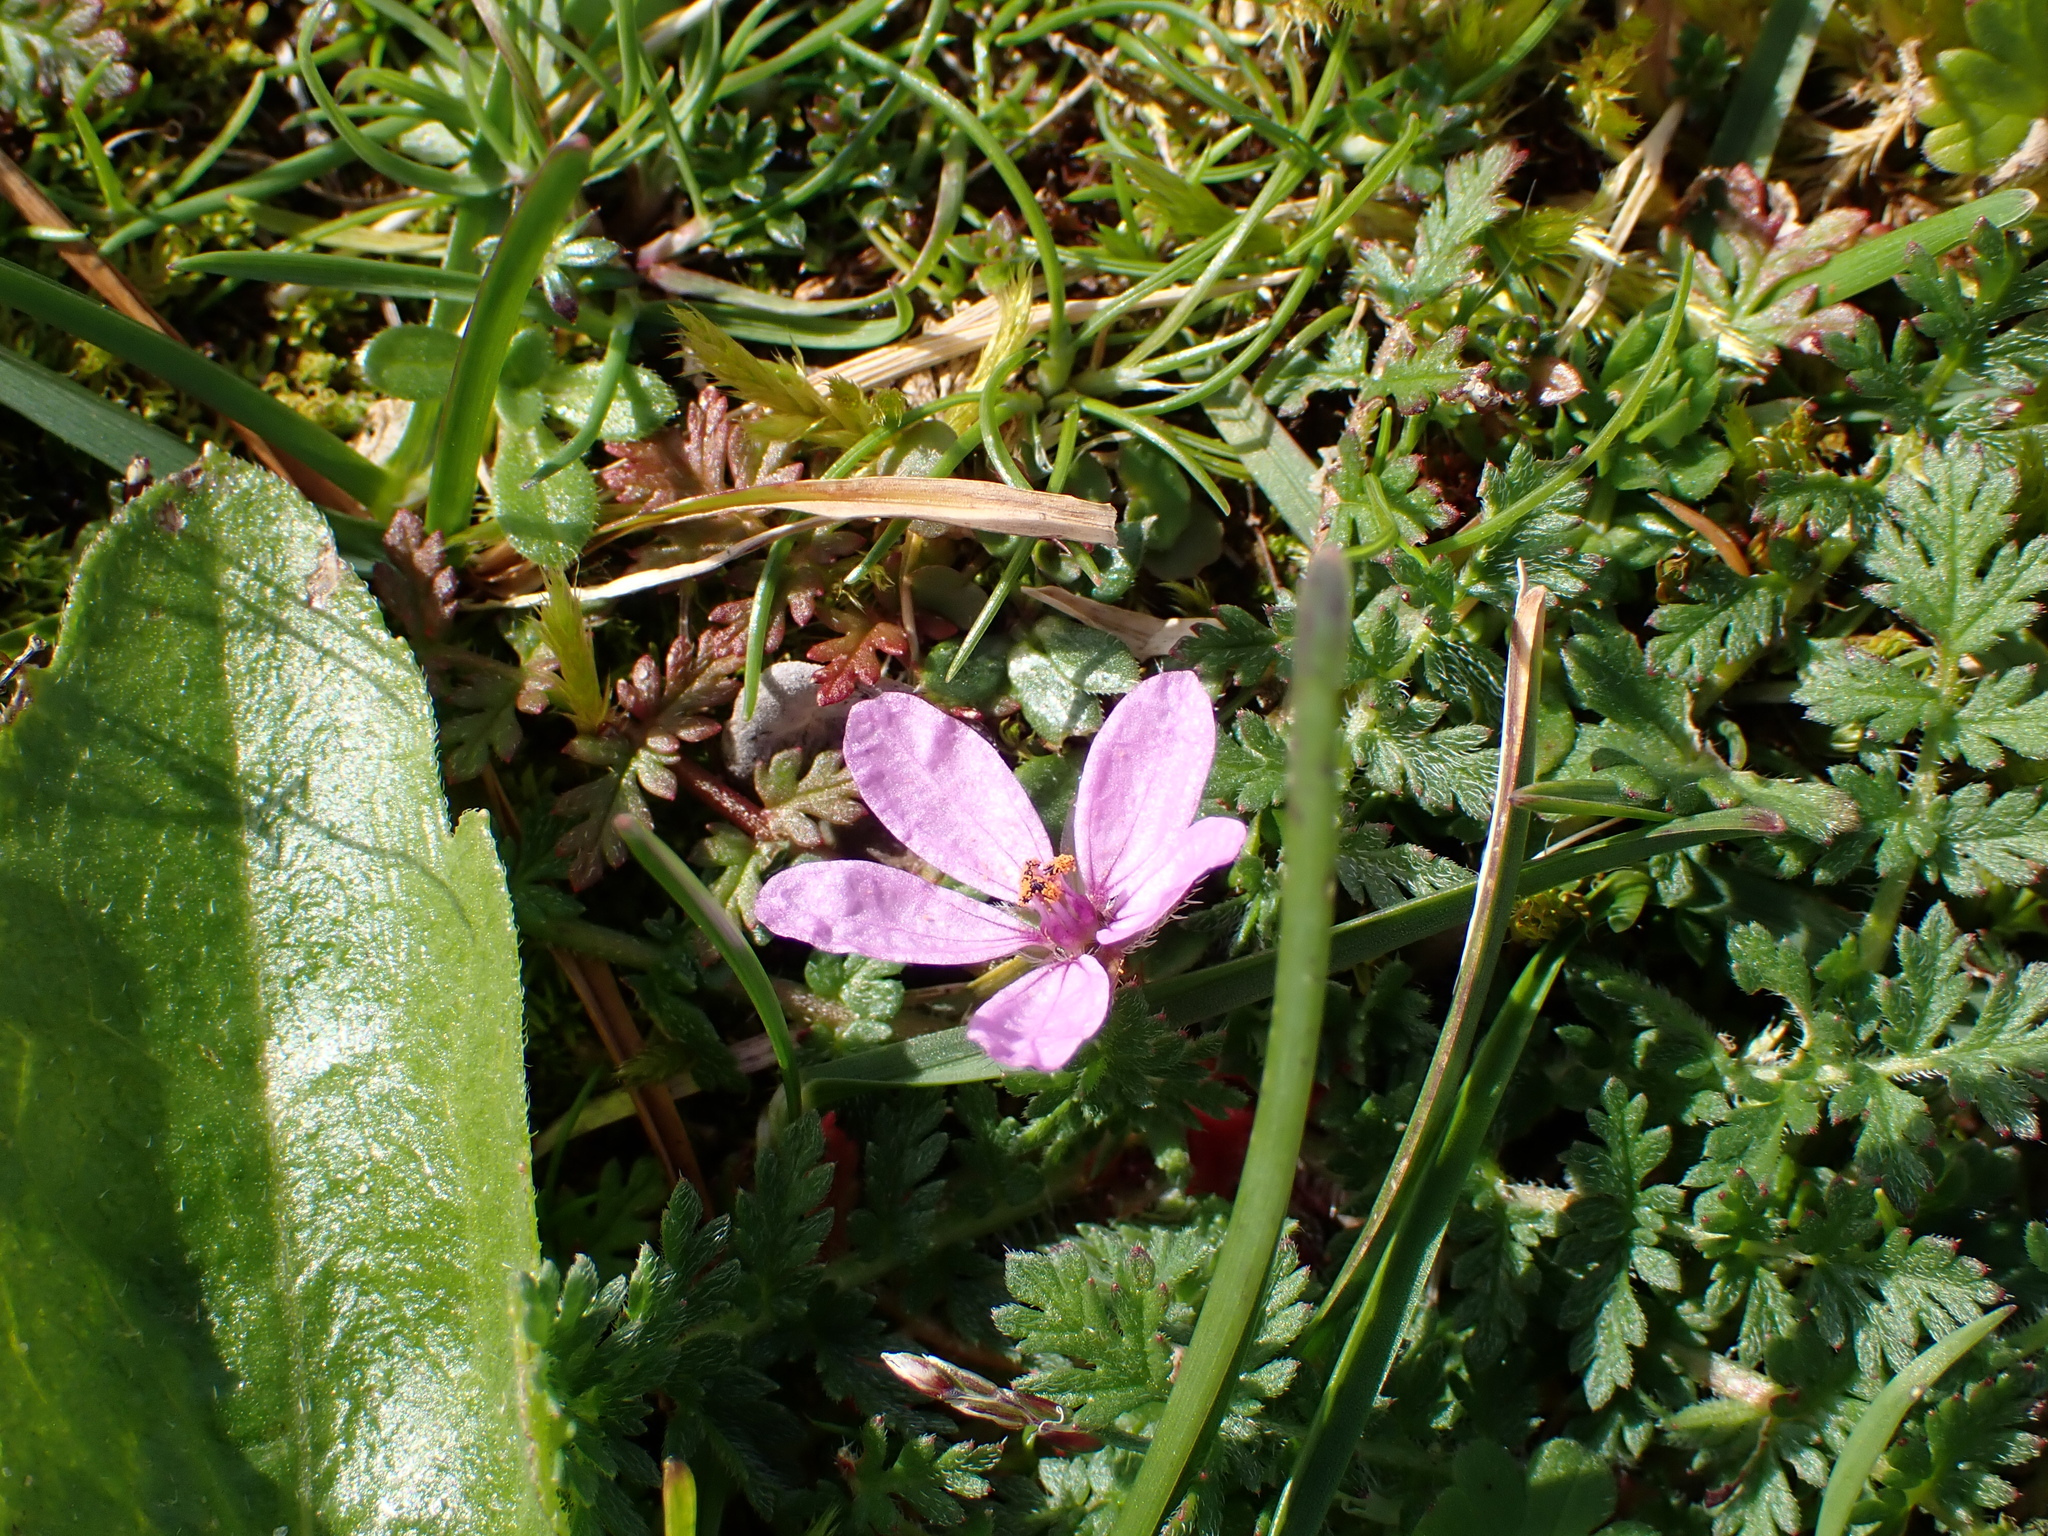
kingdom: Plantae
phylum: Tracheophyta
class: Magnoliopsida
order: Geraniales
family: Geraniaceae
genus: Erodium
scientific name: Erodium cicutarium
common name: Common stork's-bill
